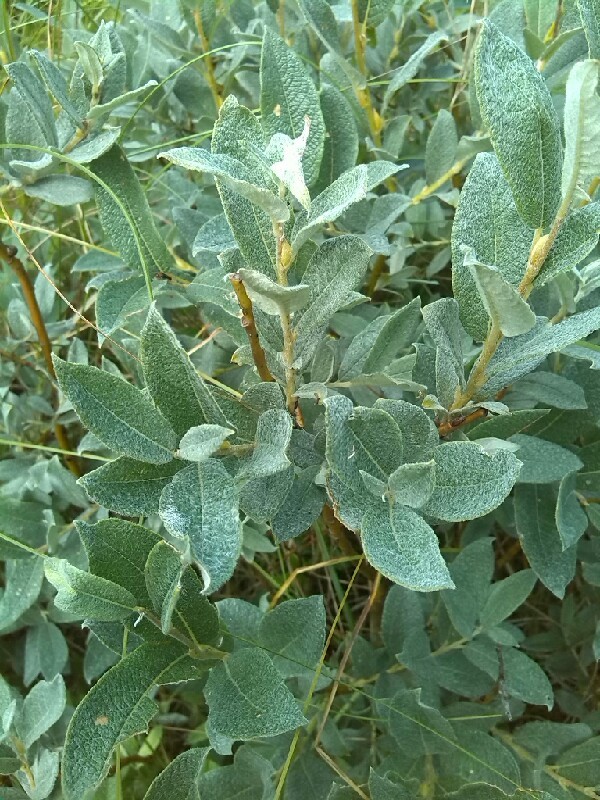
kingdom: Plantae
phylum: Tracheophyta
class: Magnoliopsida
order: Malpighiales
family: Salicaceae
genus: Salix
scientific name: Salix lapponum
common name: Downy willow
